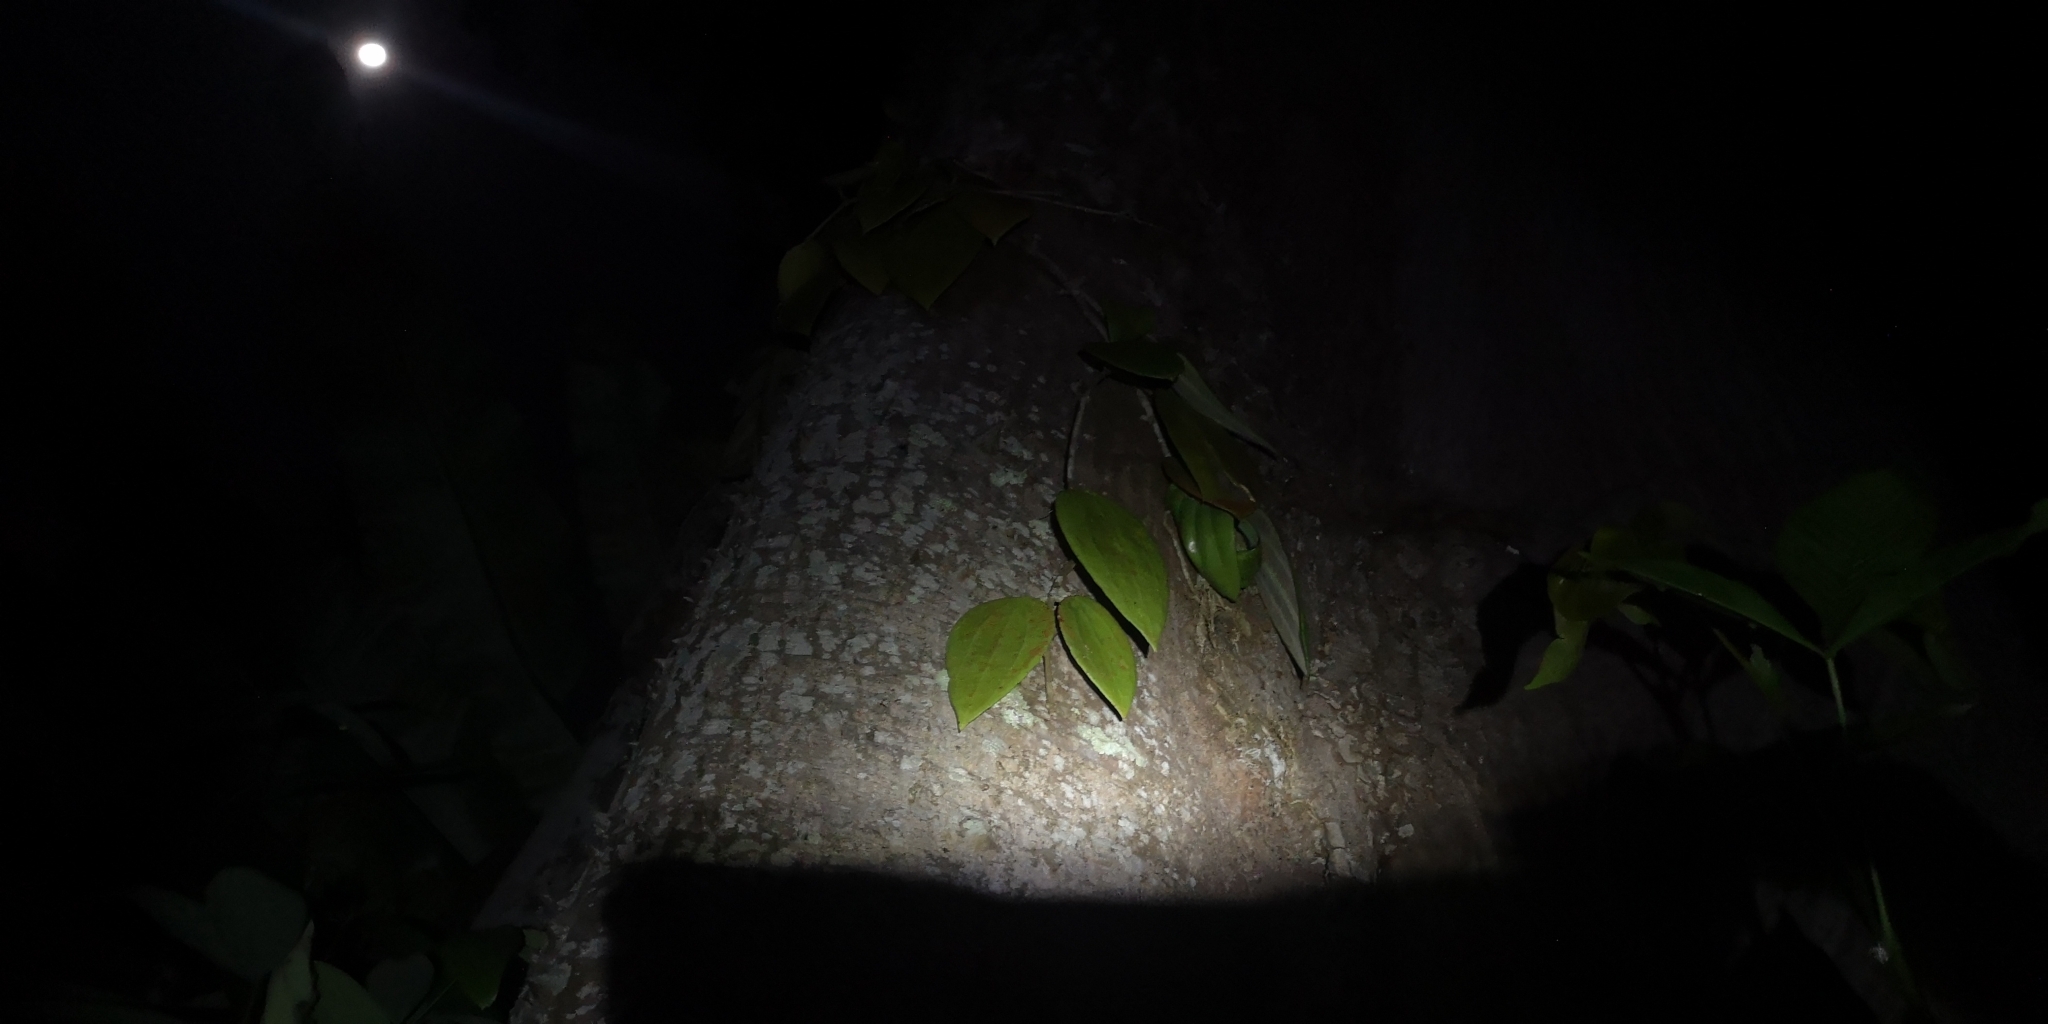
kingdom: Plantae
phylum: Tracheophyta
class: Magnoliopsida
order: Gentianales
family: Apocynaceae
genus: Hoya
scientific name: Hoya latifolia
